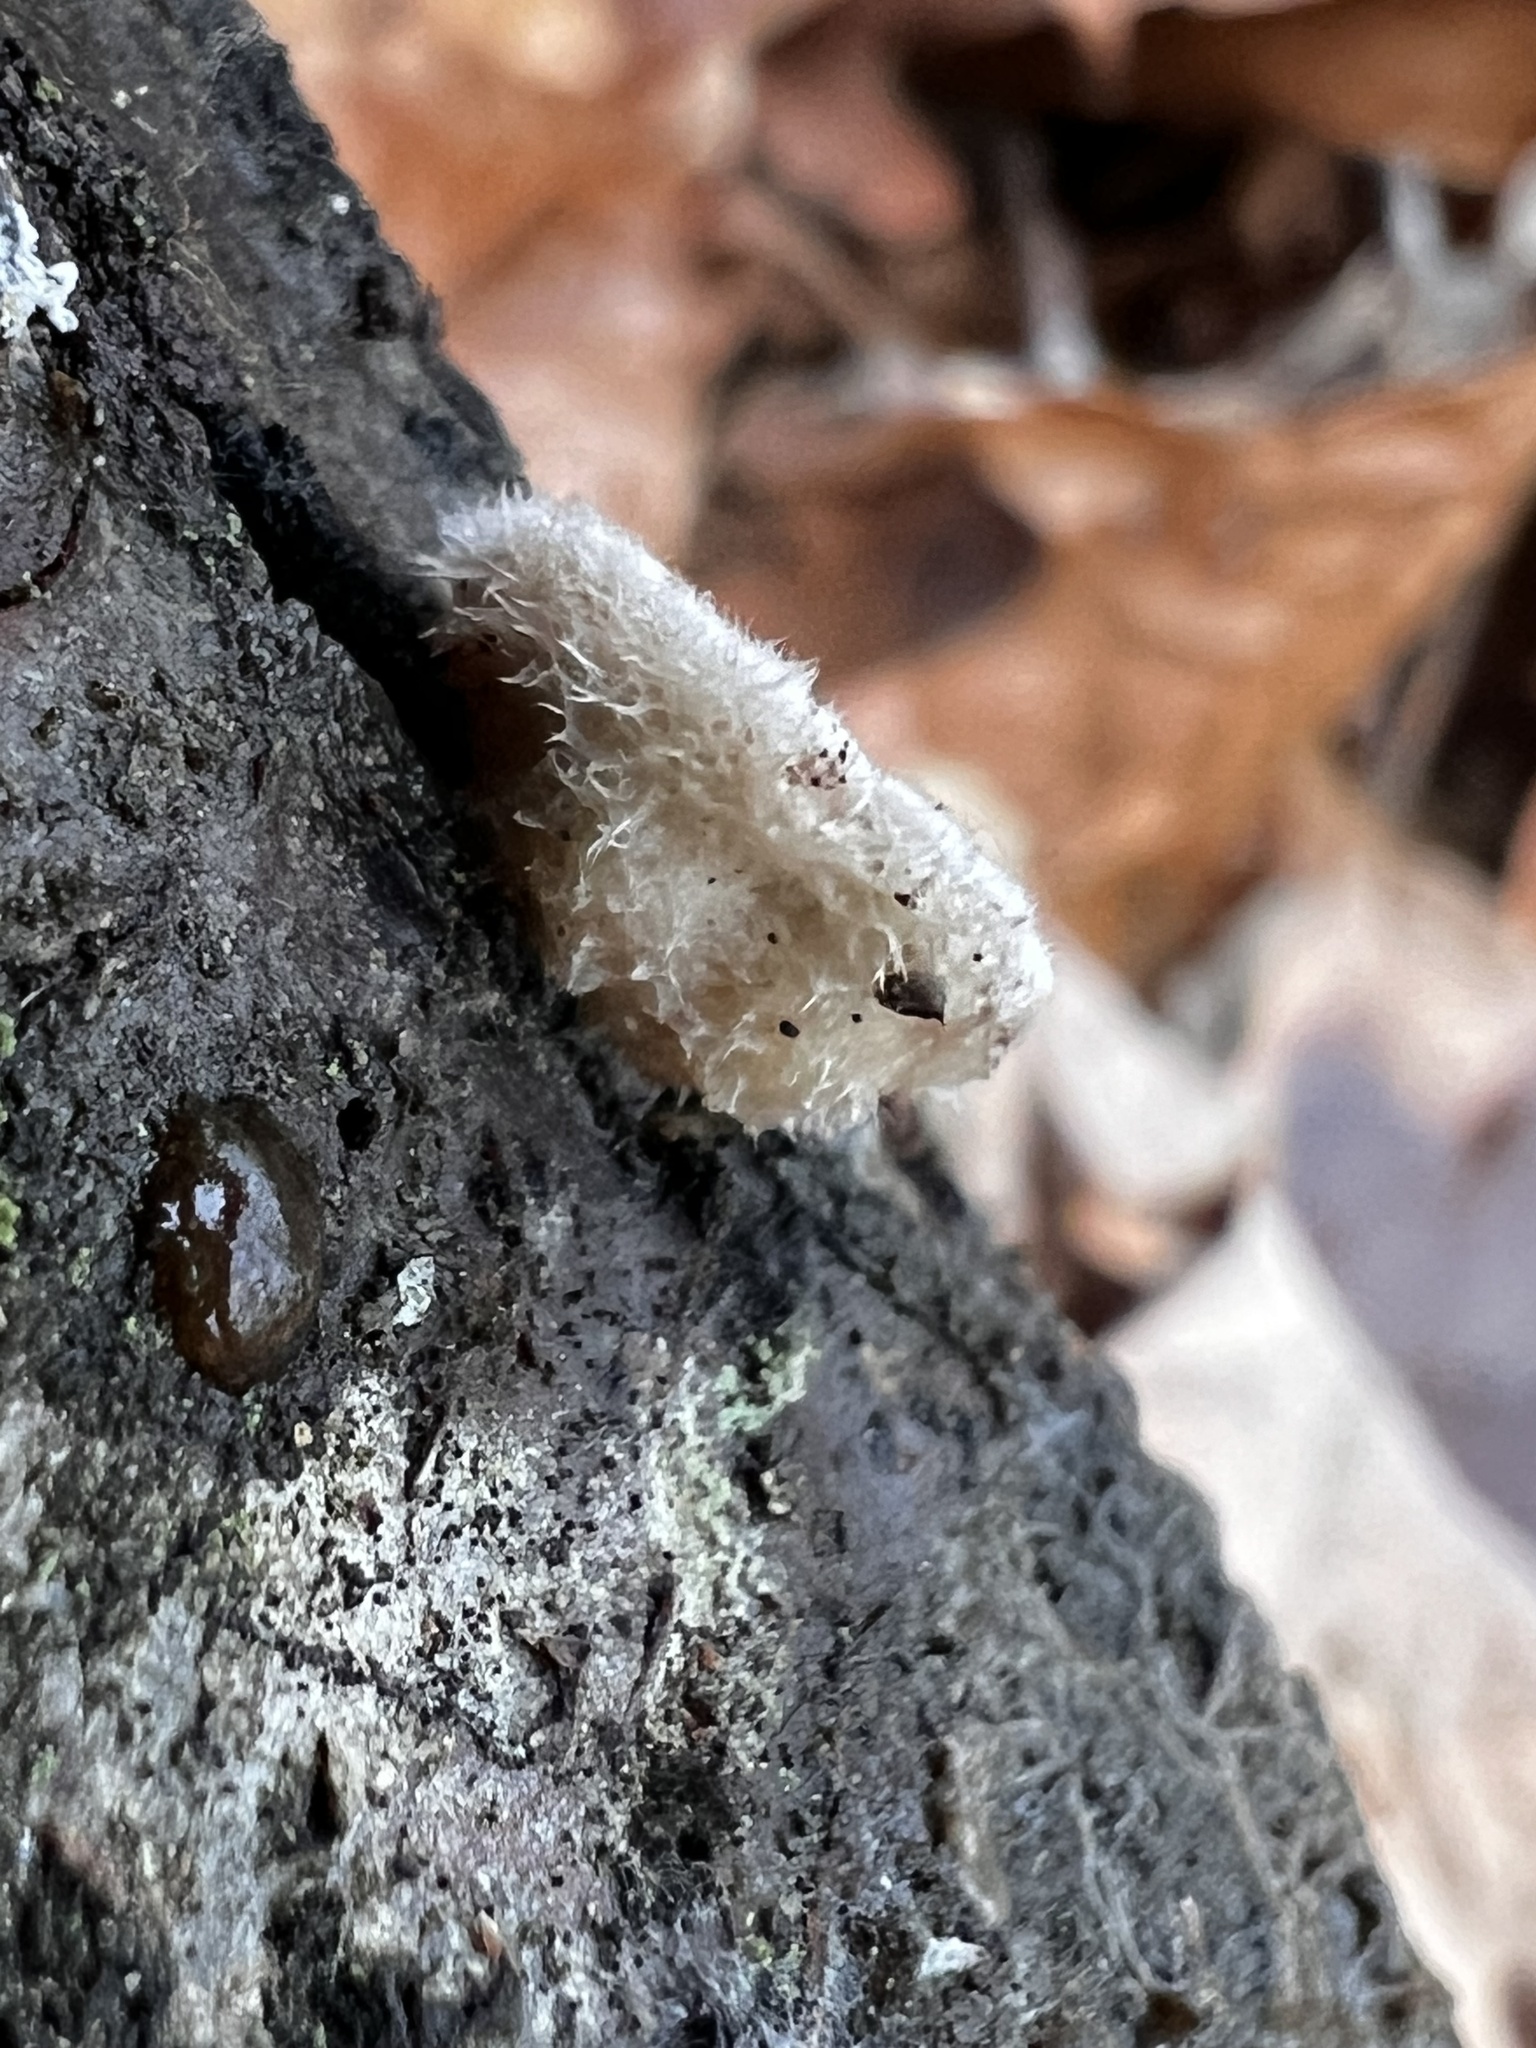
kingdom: Fungi
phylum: Basidiomycota
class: Agaricomycetes
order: Agaricales
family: Schizophyllaceae
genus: Schizophyllum
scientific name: Schizophyllum commune
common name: Common porecrust
